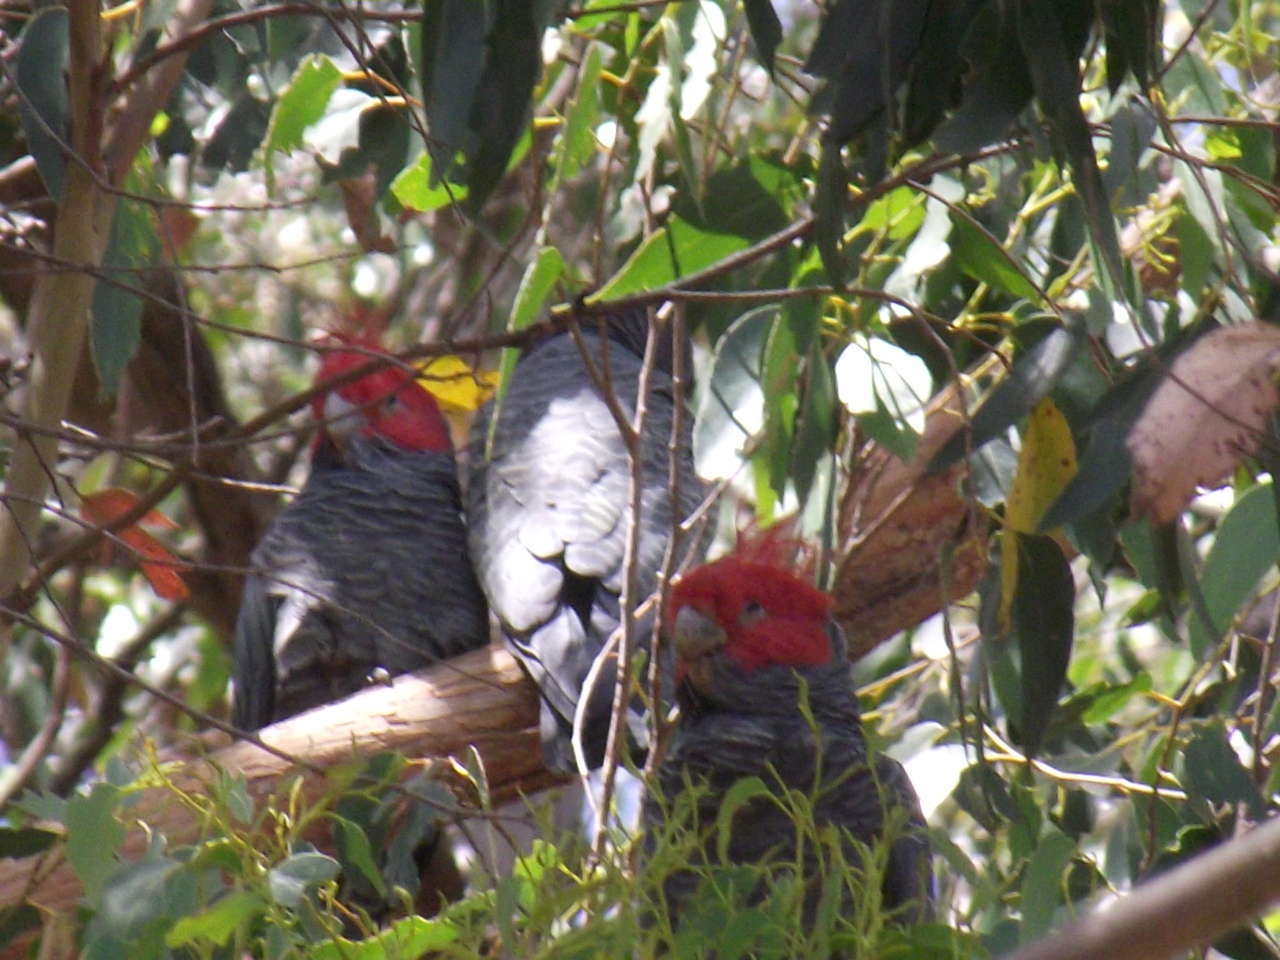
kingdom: Animalia
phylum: Chordata
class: Aves
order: Psittaciformes
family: Psittacidae
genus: Callocephalon
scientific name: Callocephalon fimbriatum
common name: Gang-gang cockatoo
